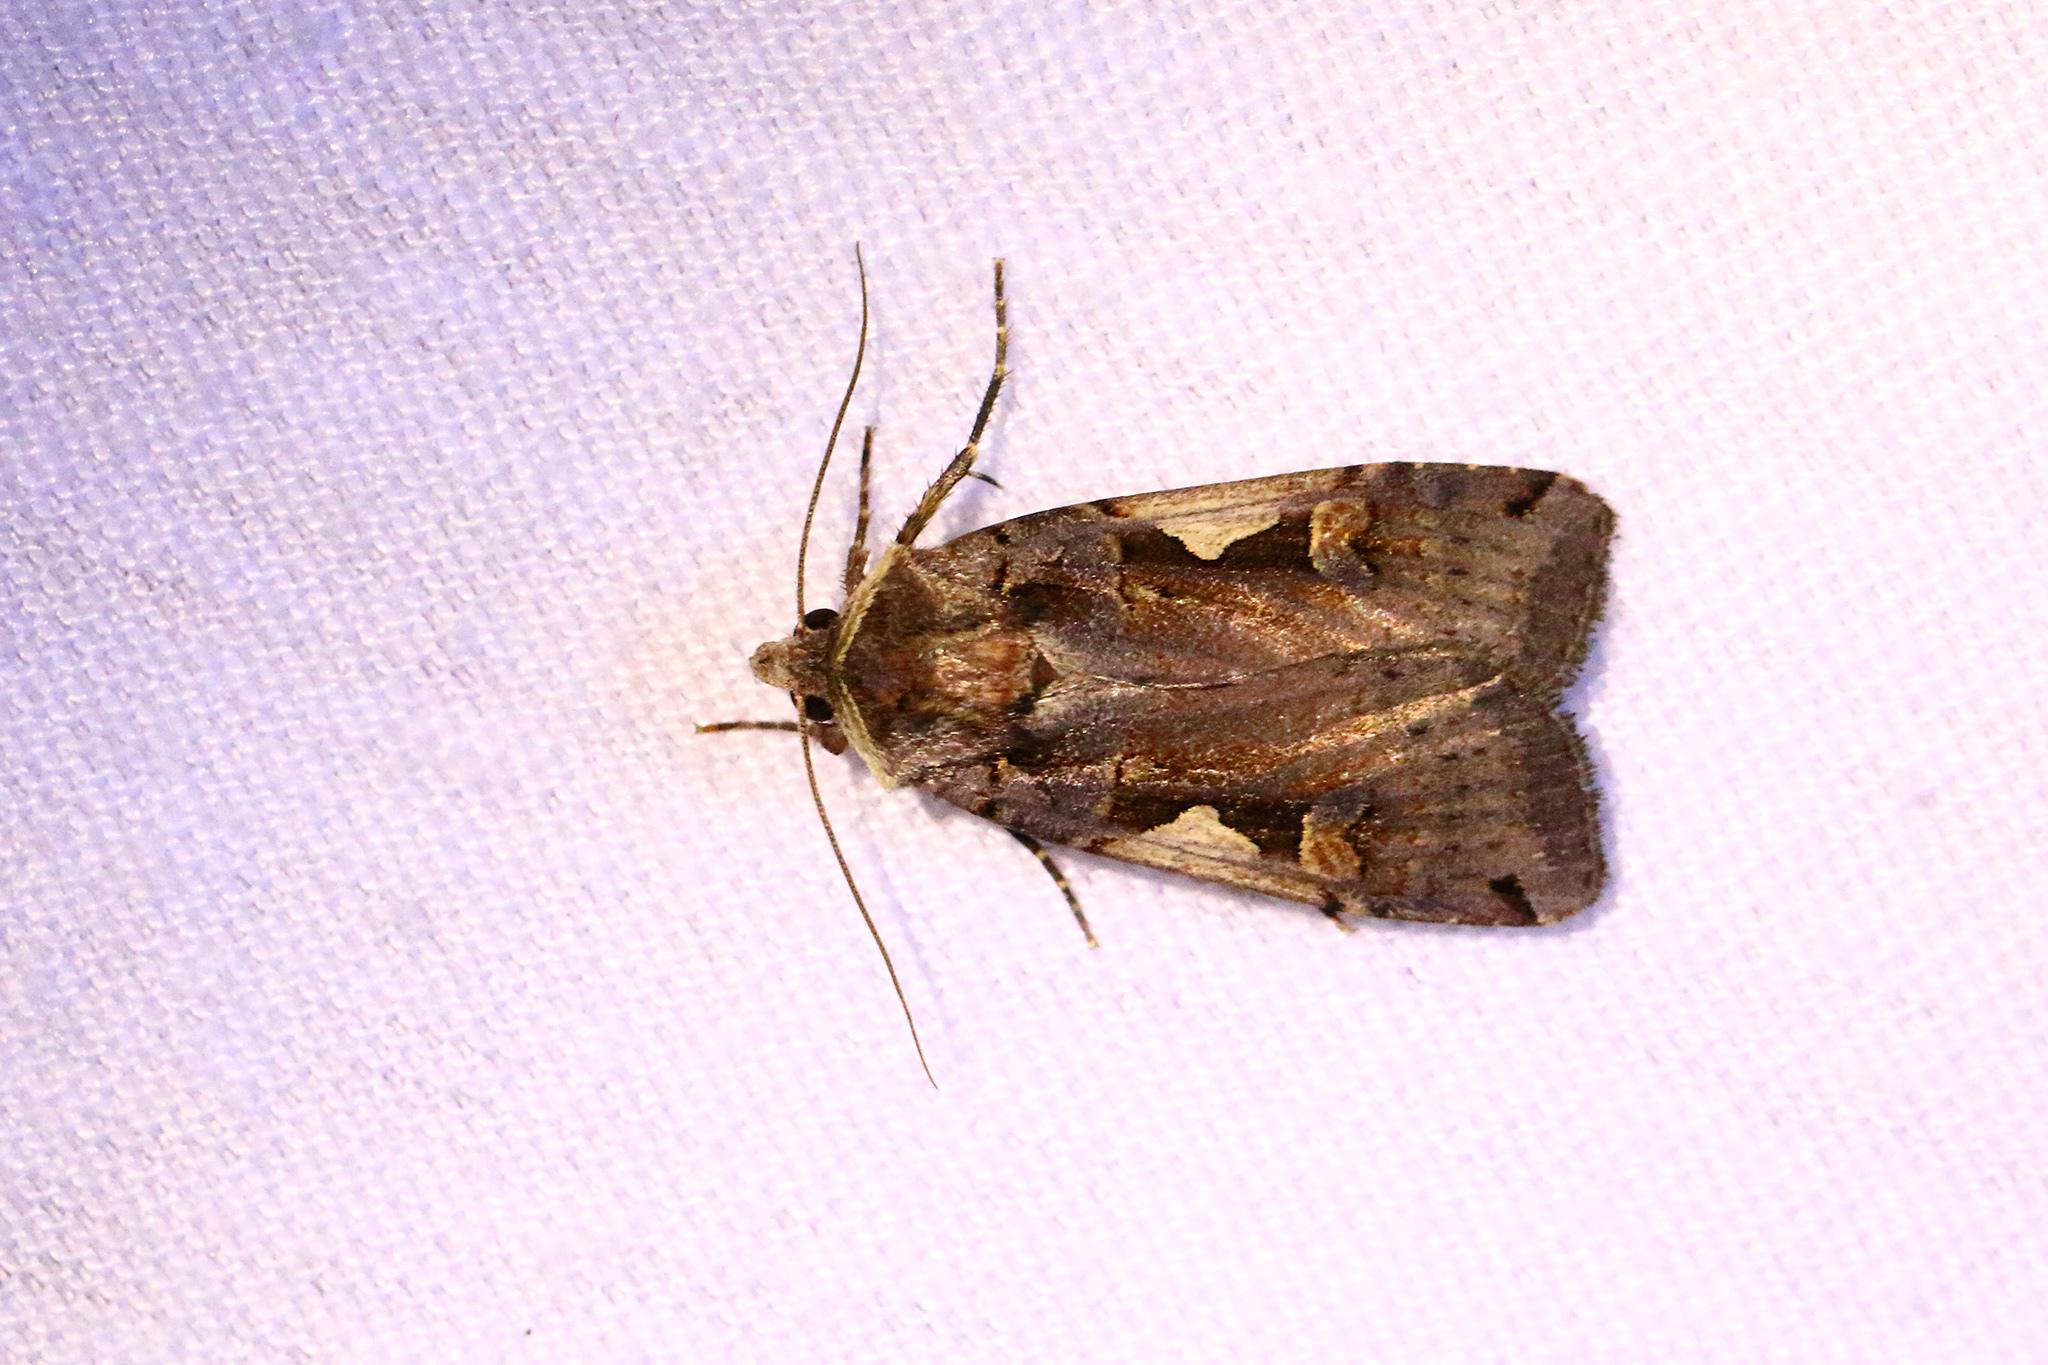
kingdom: Animalia
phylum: Arthropoda
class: Insecta
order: Lepidoptera
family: Noctuidae
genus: Xestia
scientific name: Xestia c-nigrum
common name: Setaceous hebrew character
